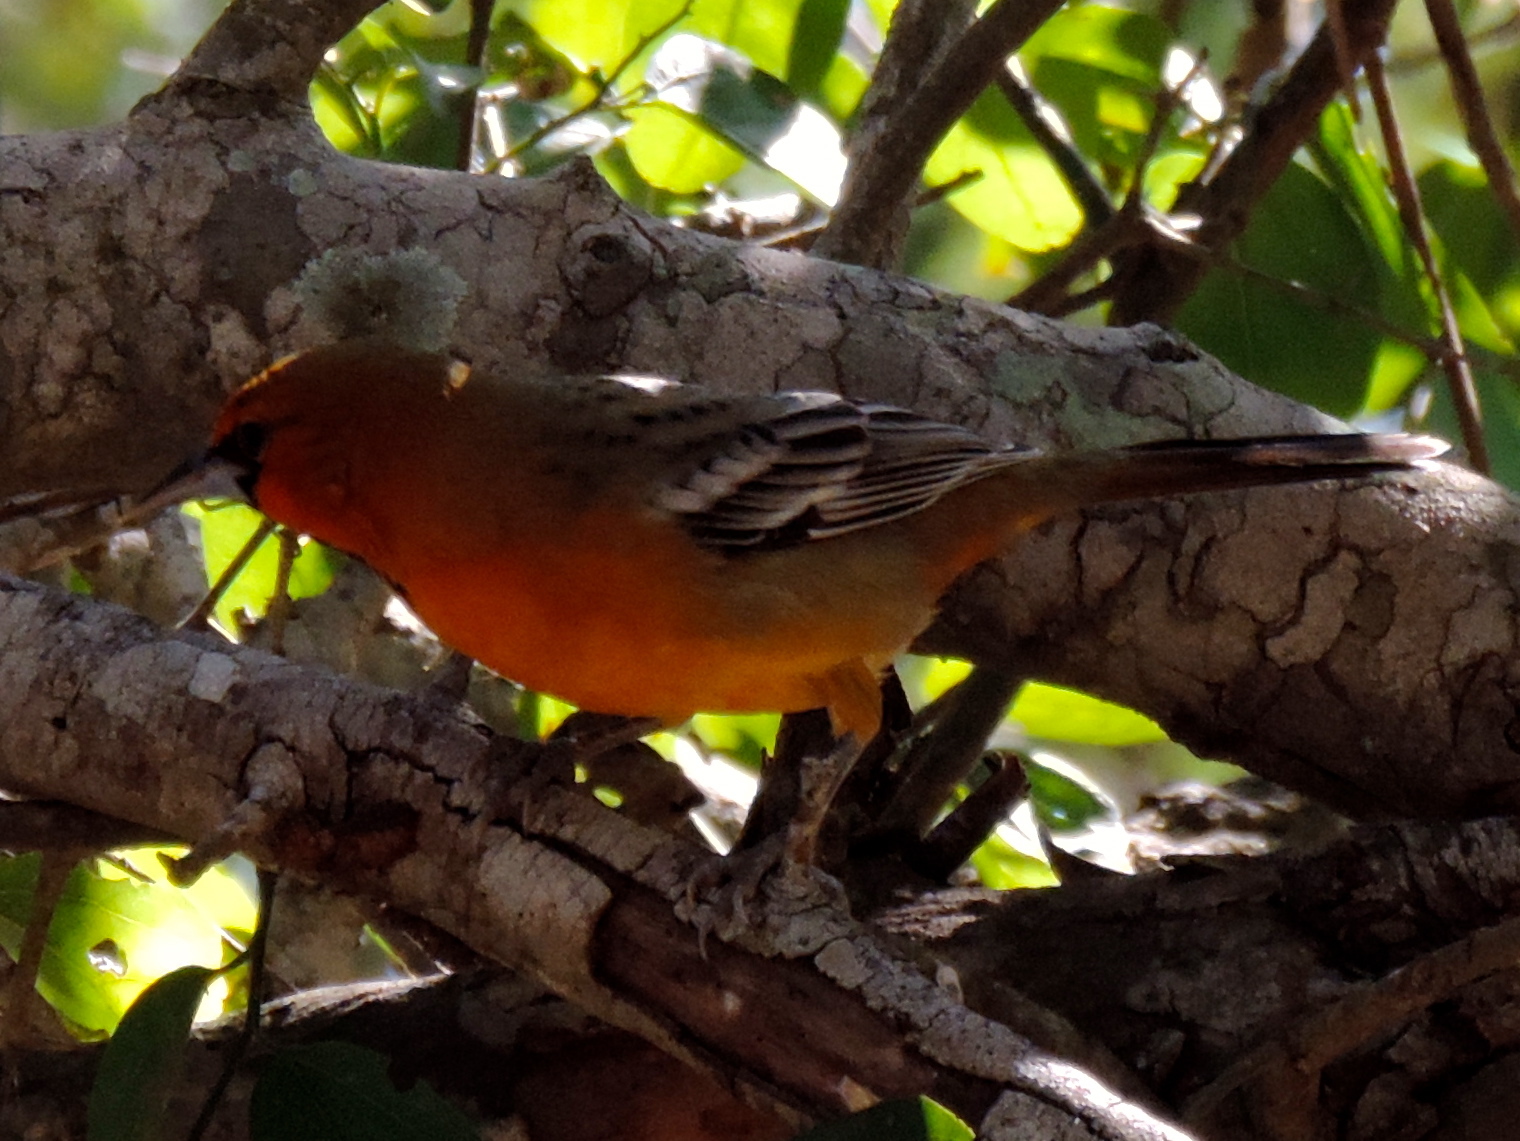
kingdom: Animalia
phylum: Chordata
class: Aves
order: Passeriformes
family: Icteridae
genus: Icterus
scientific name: Icterus pustulatus
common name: Streak-backed oriole
